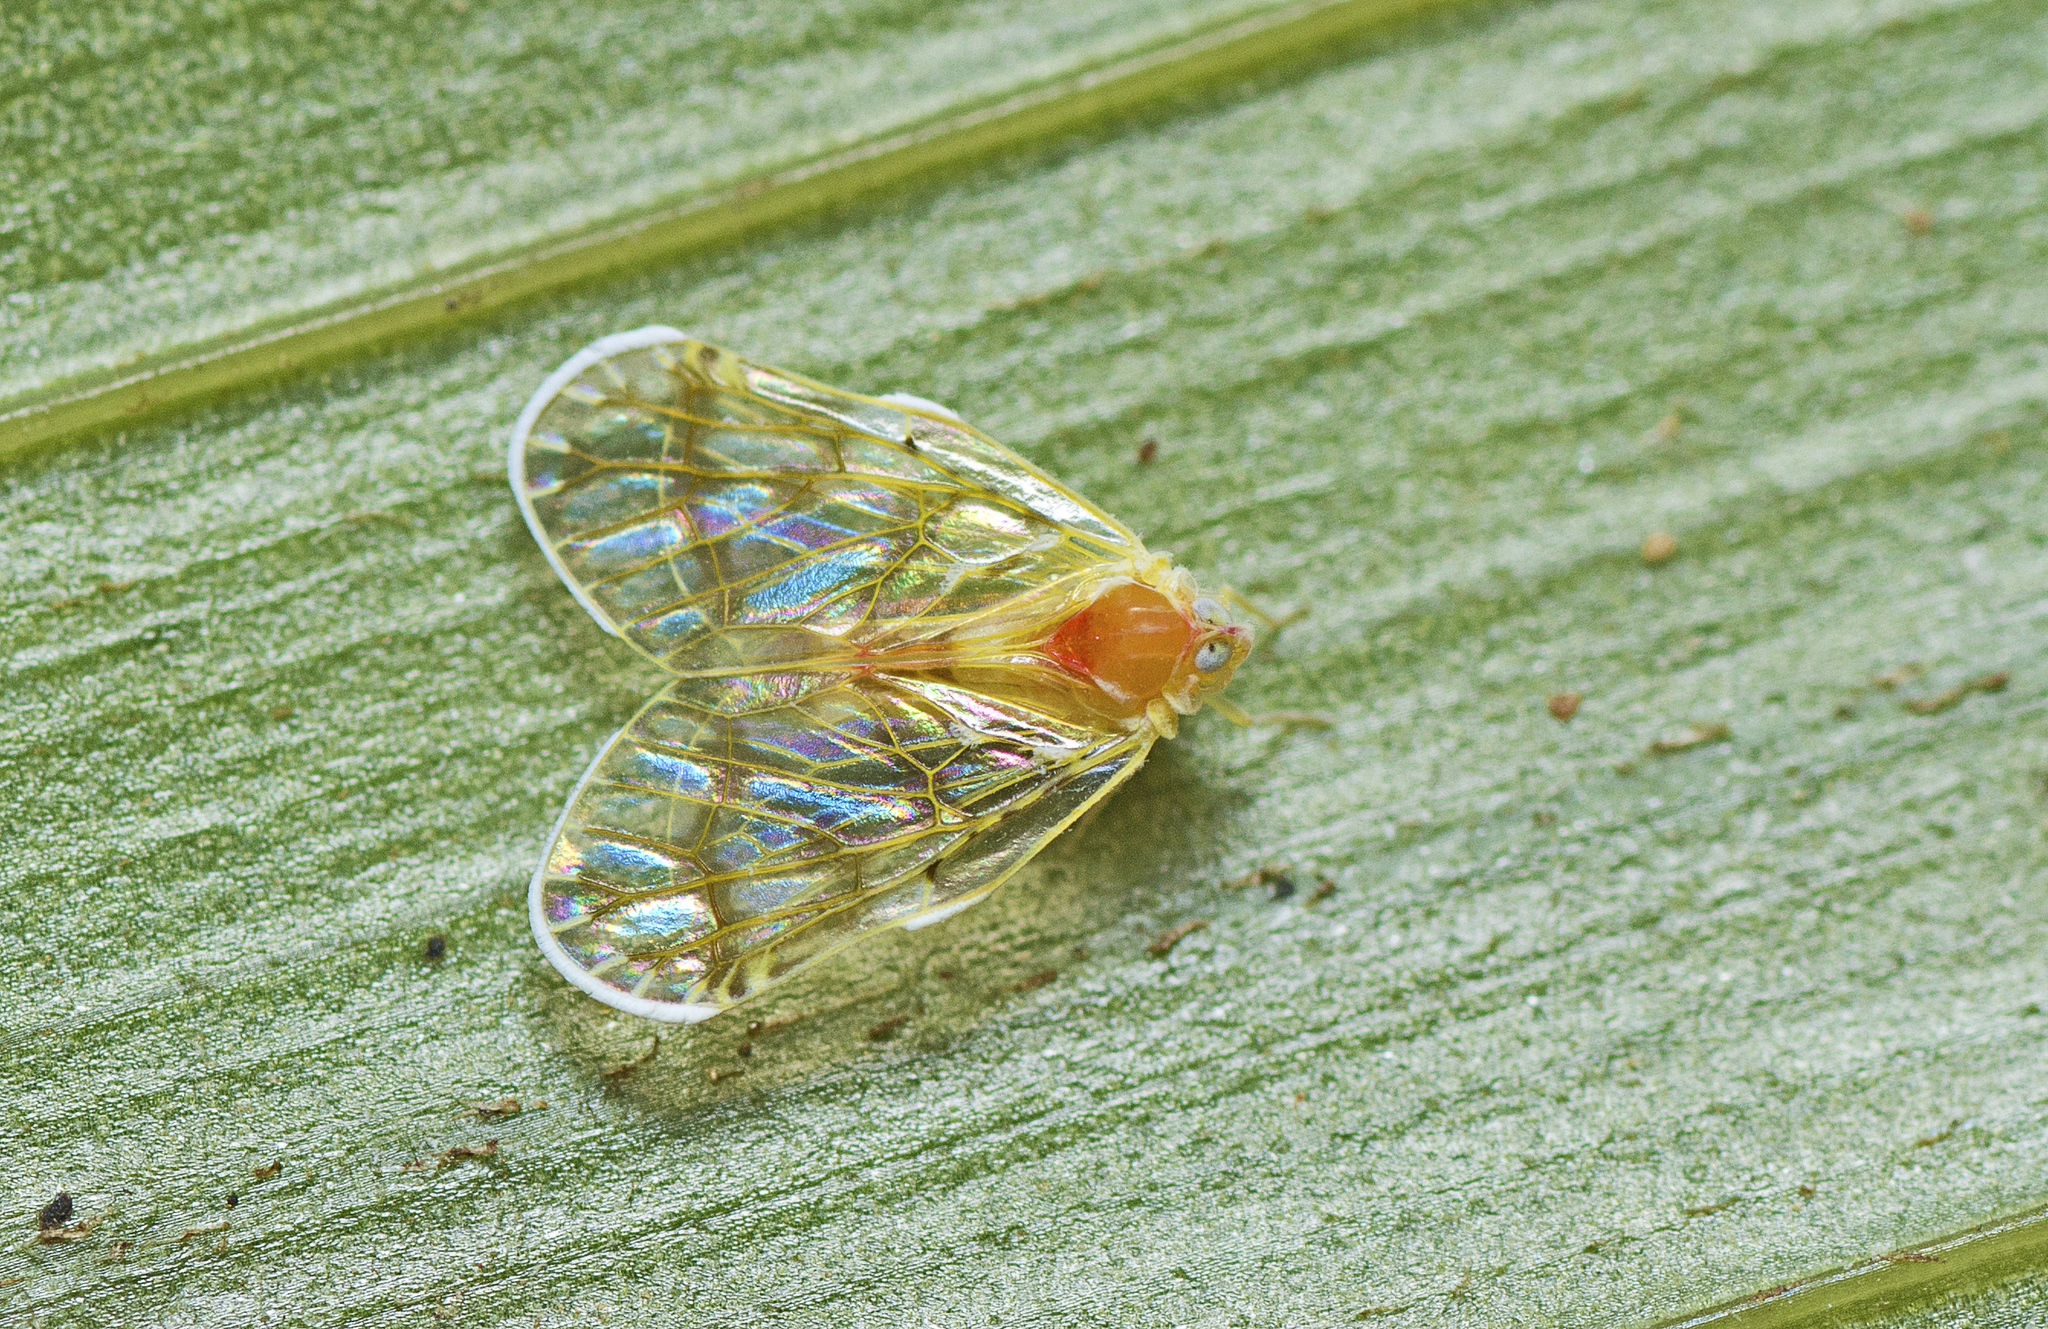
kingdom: Animalia
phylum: Arthropoda
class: Insecta
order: Hemiptera
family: Derbidae
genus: Saccharodite
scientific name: Saccharodite chrysonoe
